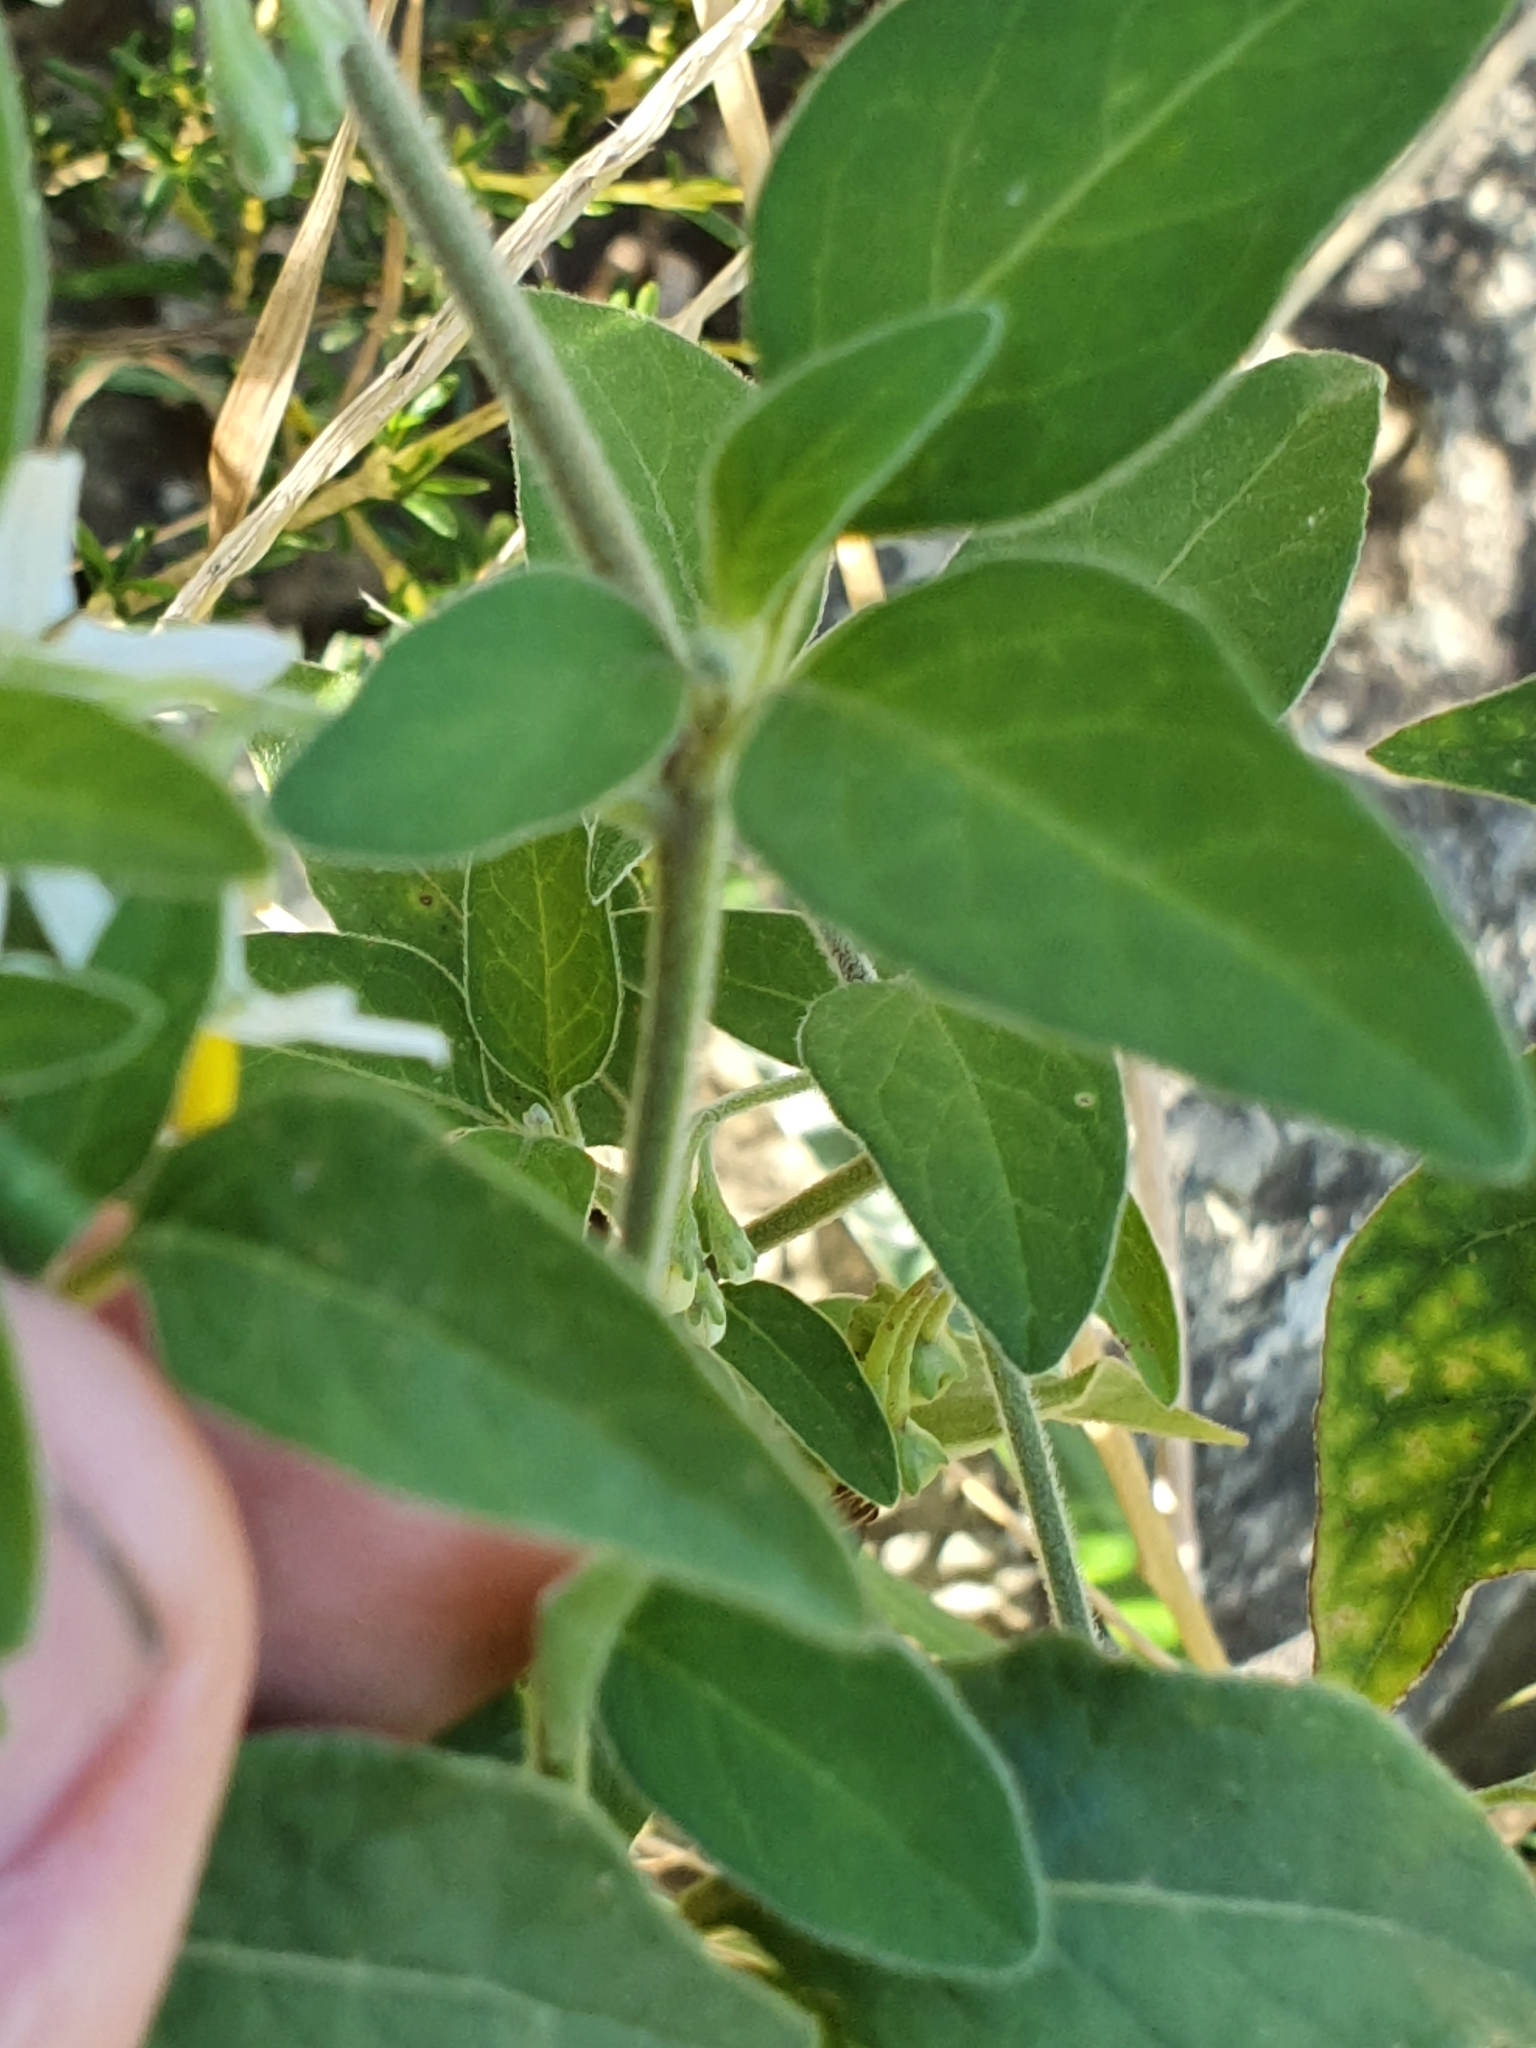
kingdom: Plantae
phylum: Tracheophyta
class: Magnoliopsida
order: Solanales
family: Solanaceae
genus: Solanum
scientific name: Solanum chenopodioides
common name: Tall nightshade
